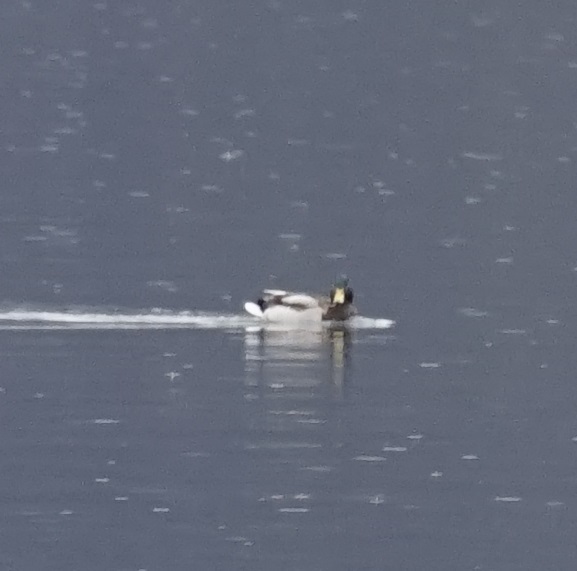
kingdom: Animalia
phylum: Chordata
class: Aves
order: Anseriformes
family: Anatidae
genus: Anas
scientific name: Anas platyrhynchos
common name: Mallard
